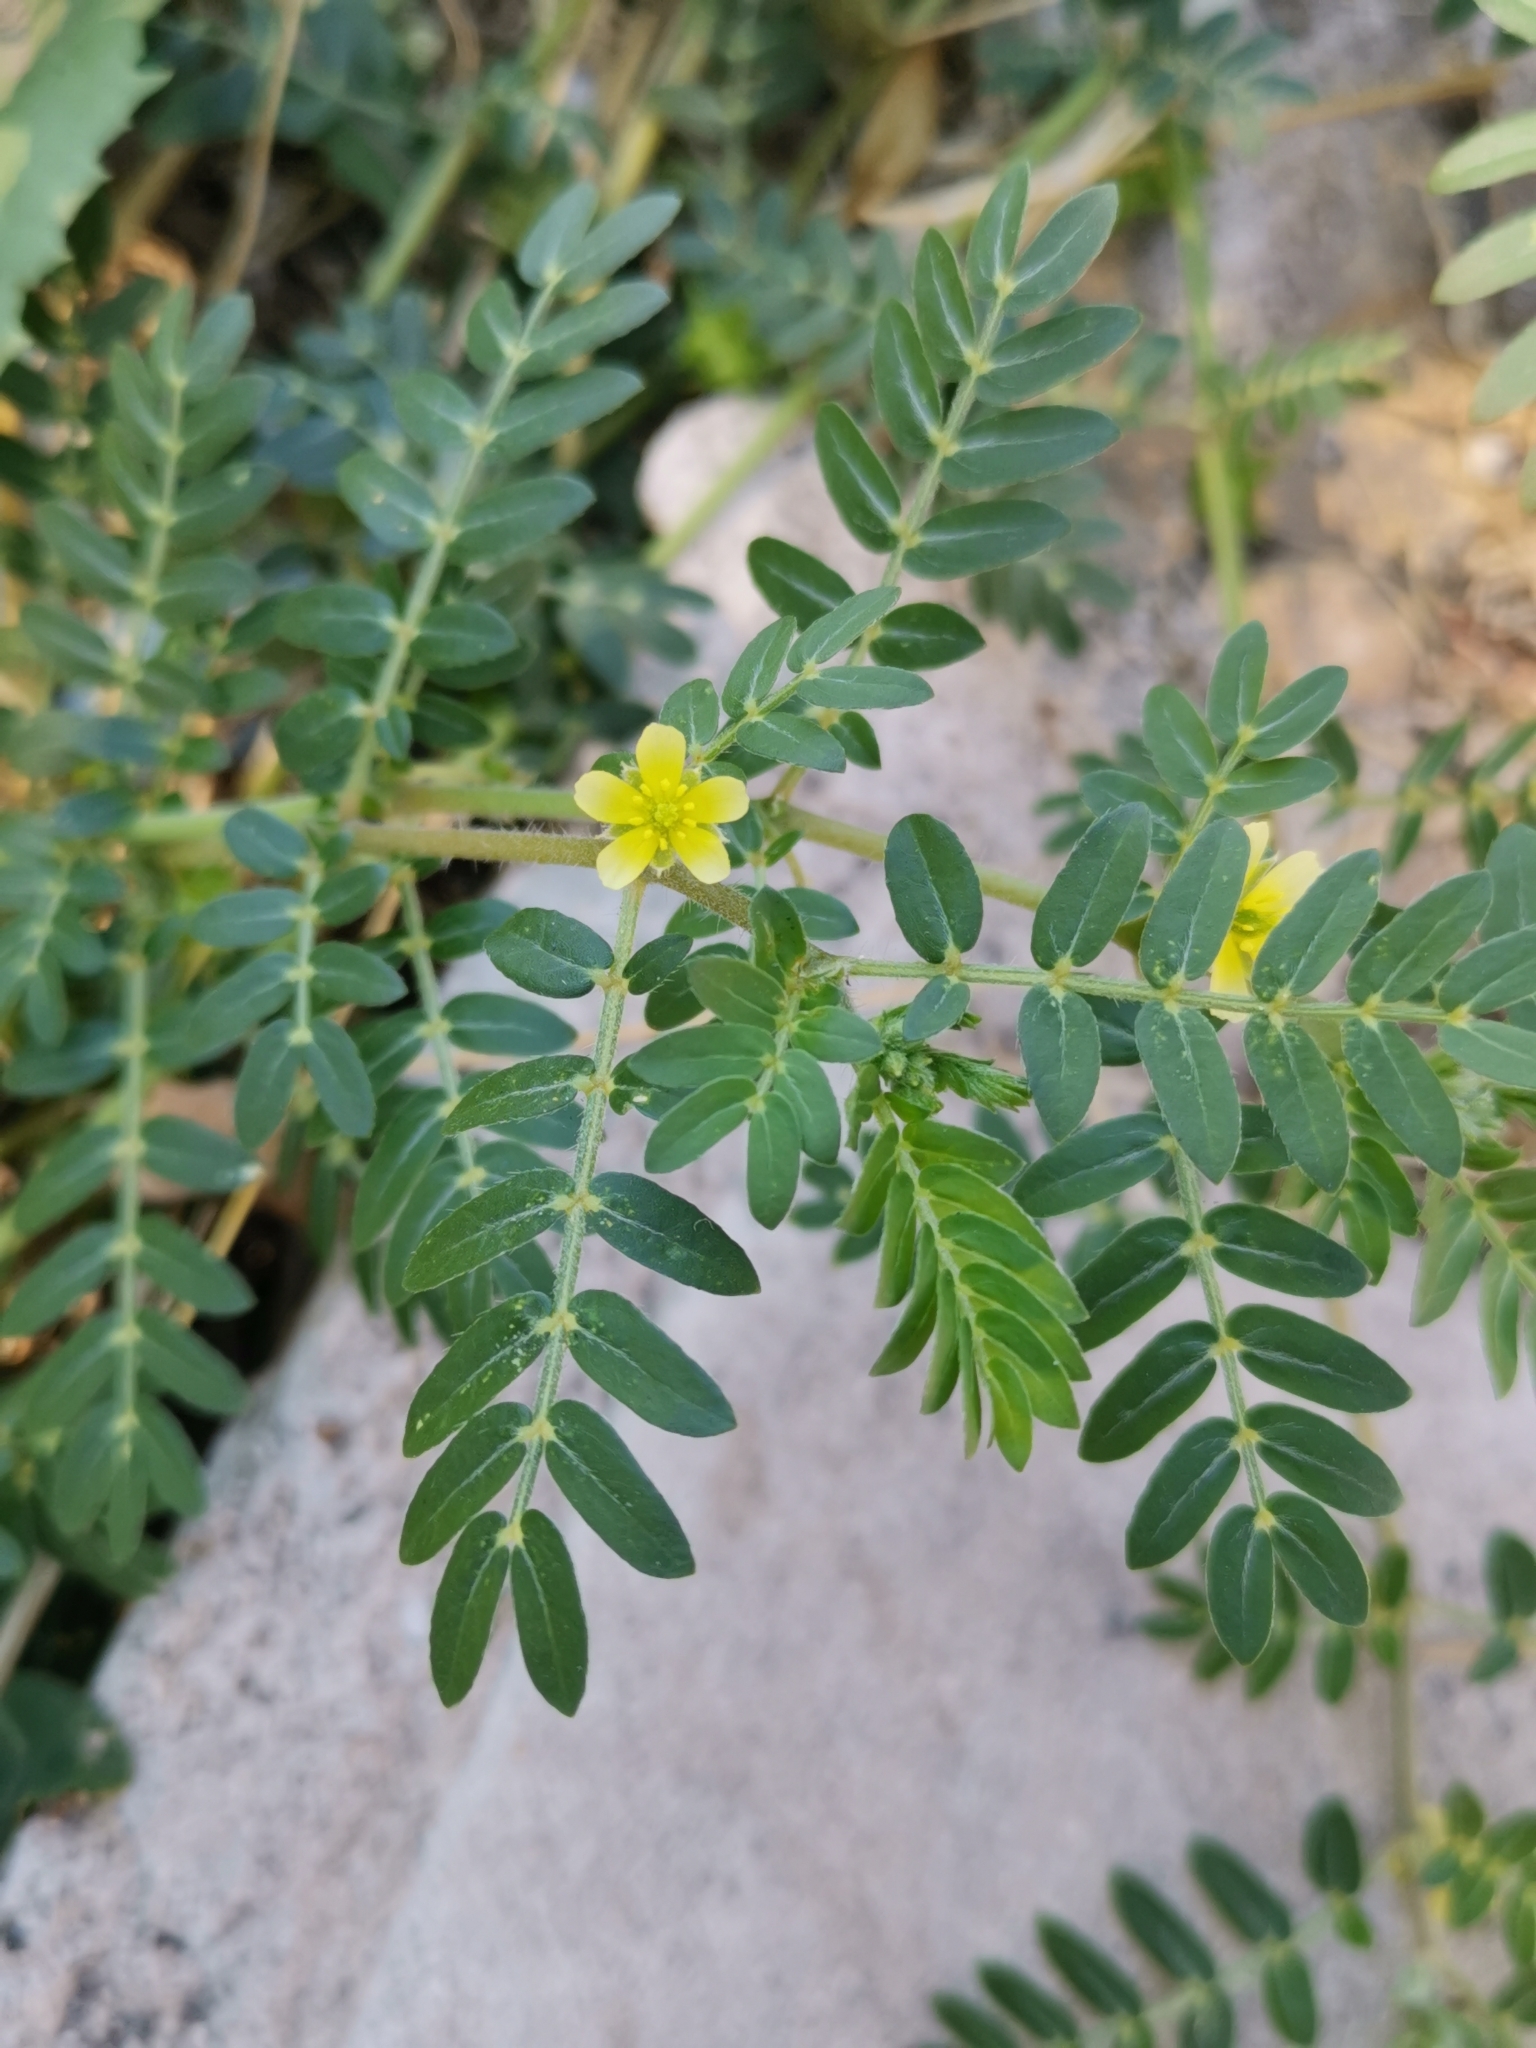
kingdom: Plantae
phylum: Tracheophyta
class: Magnoliopsida
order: Zygophyllales
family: Zygophyllaceae
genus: Tribulus
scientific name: Tribulus terrestris
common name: Puncturevine
